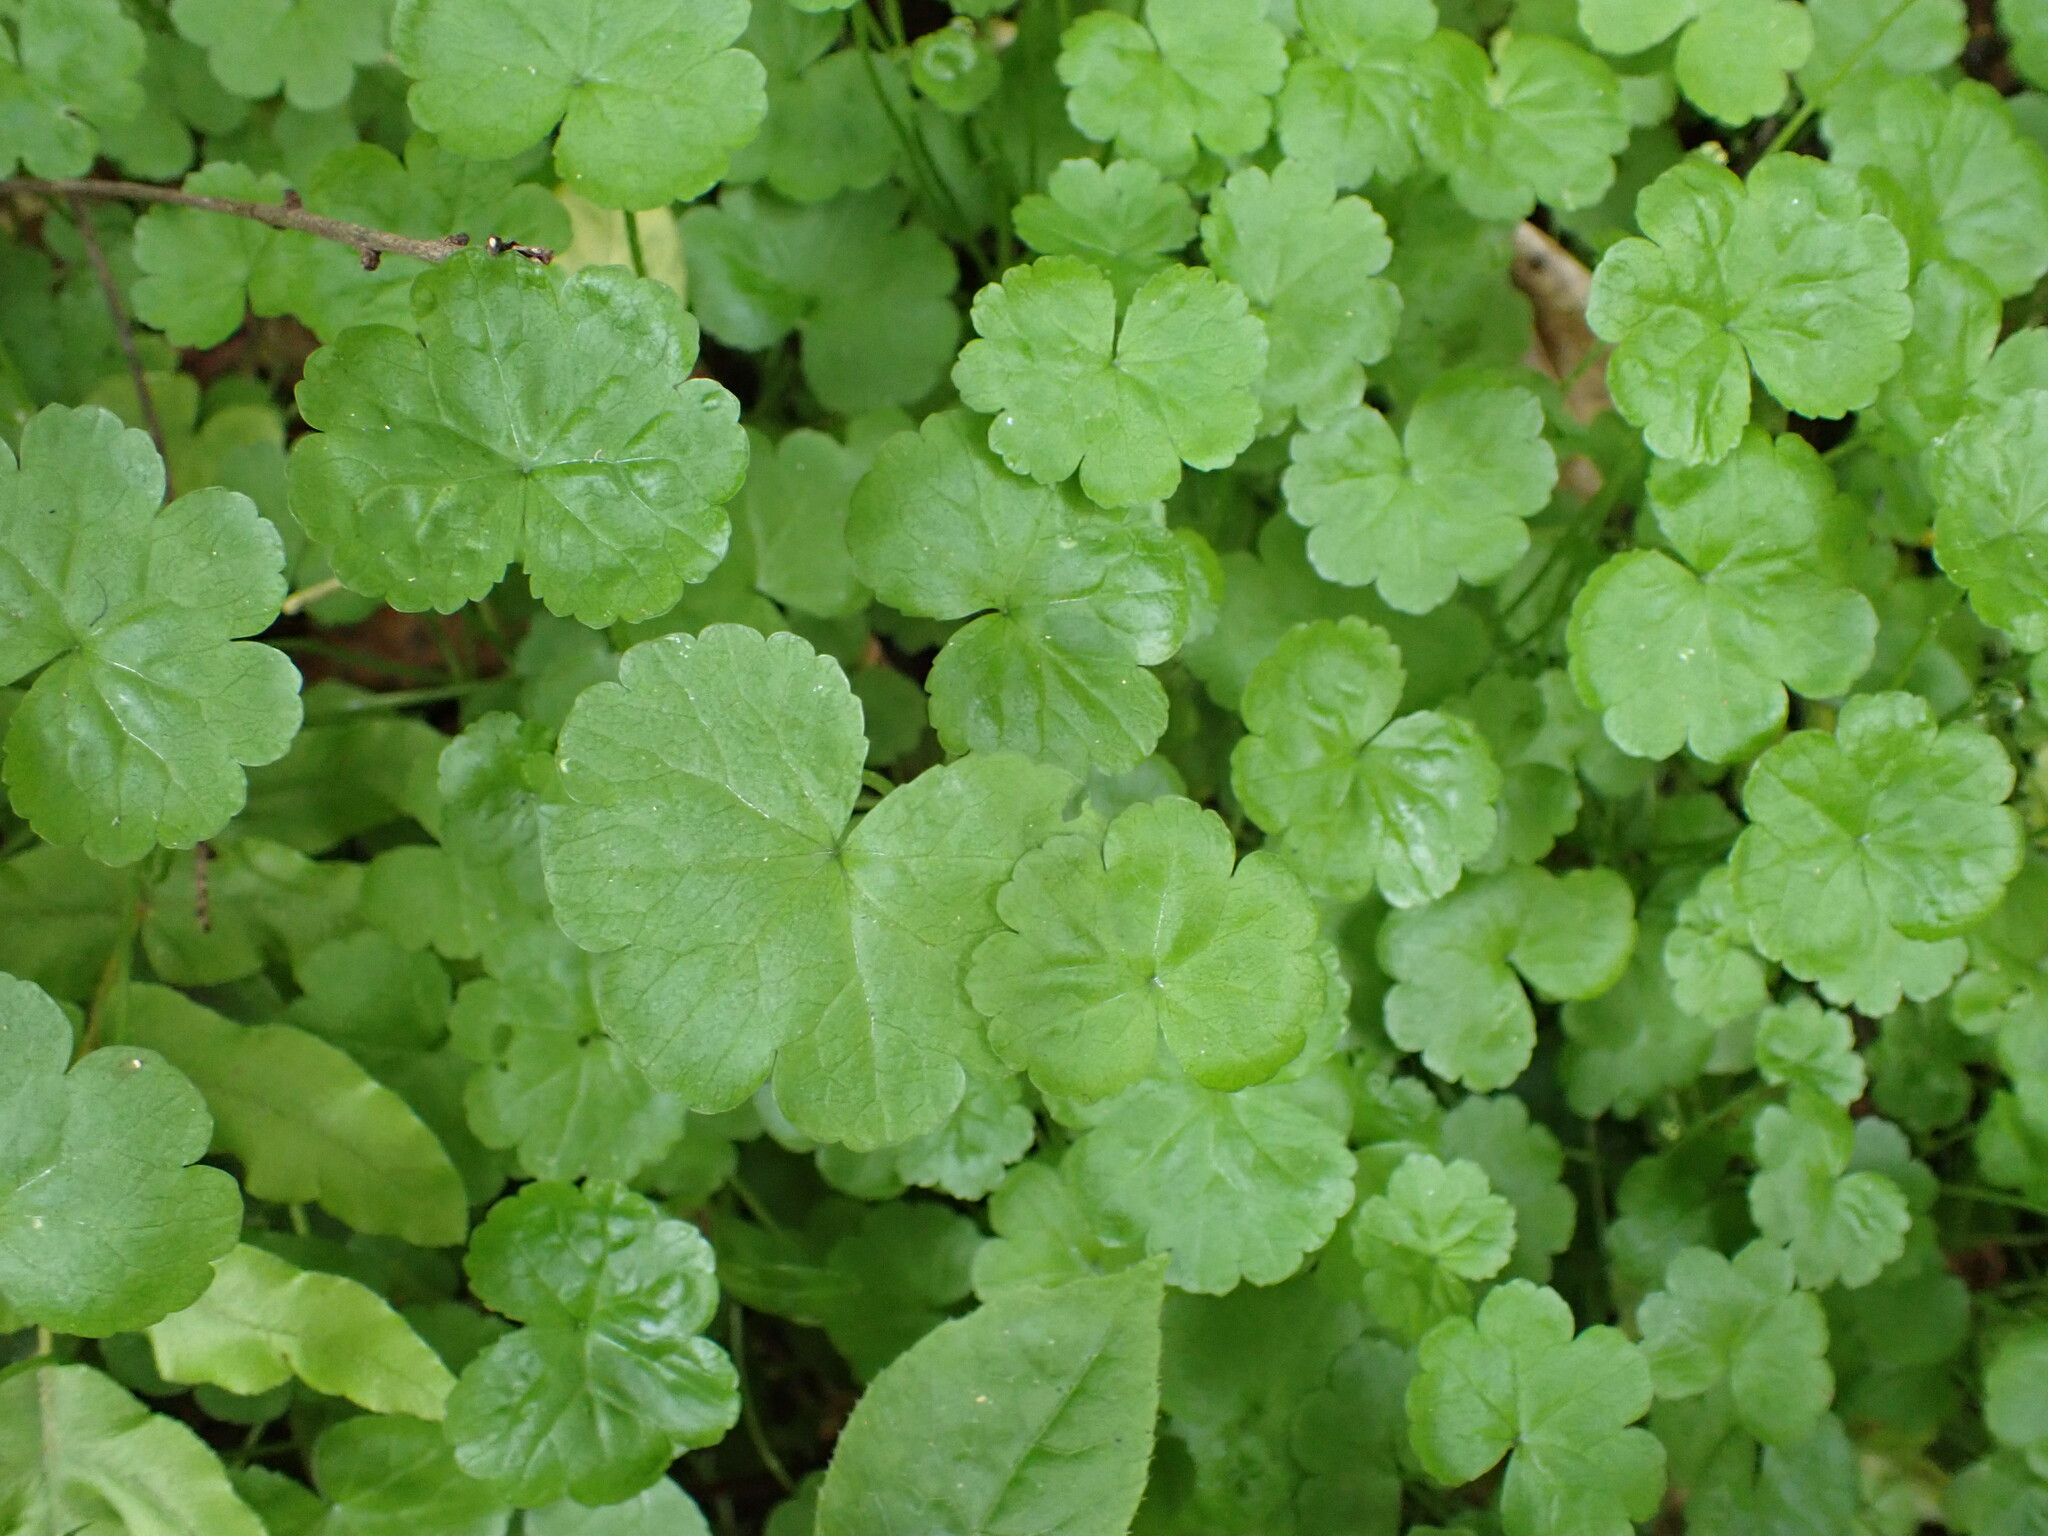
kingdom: Plantae
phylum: Tracheophyta
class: Magnoliopsida
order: Apiales
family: Araliaceae
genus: Hydrocotyle
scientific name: Hydrocotyle heteromeria
